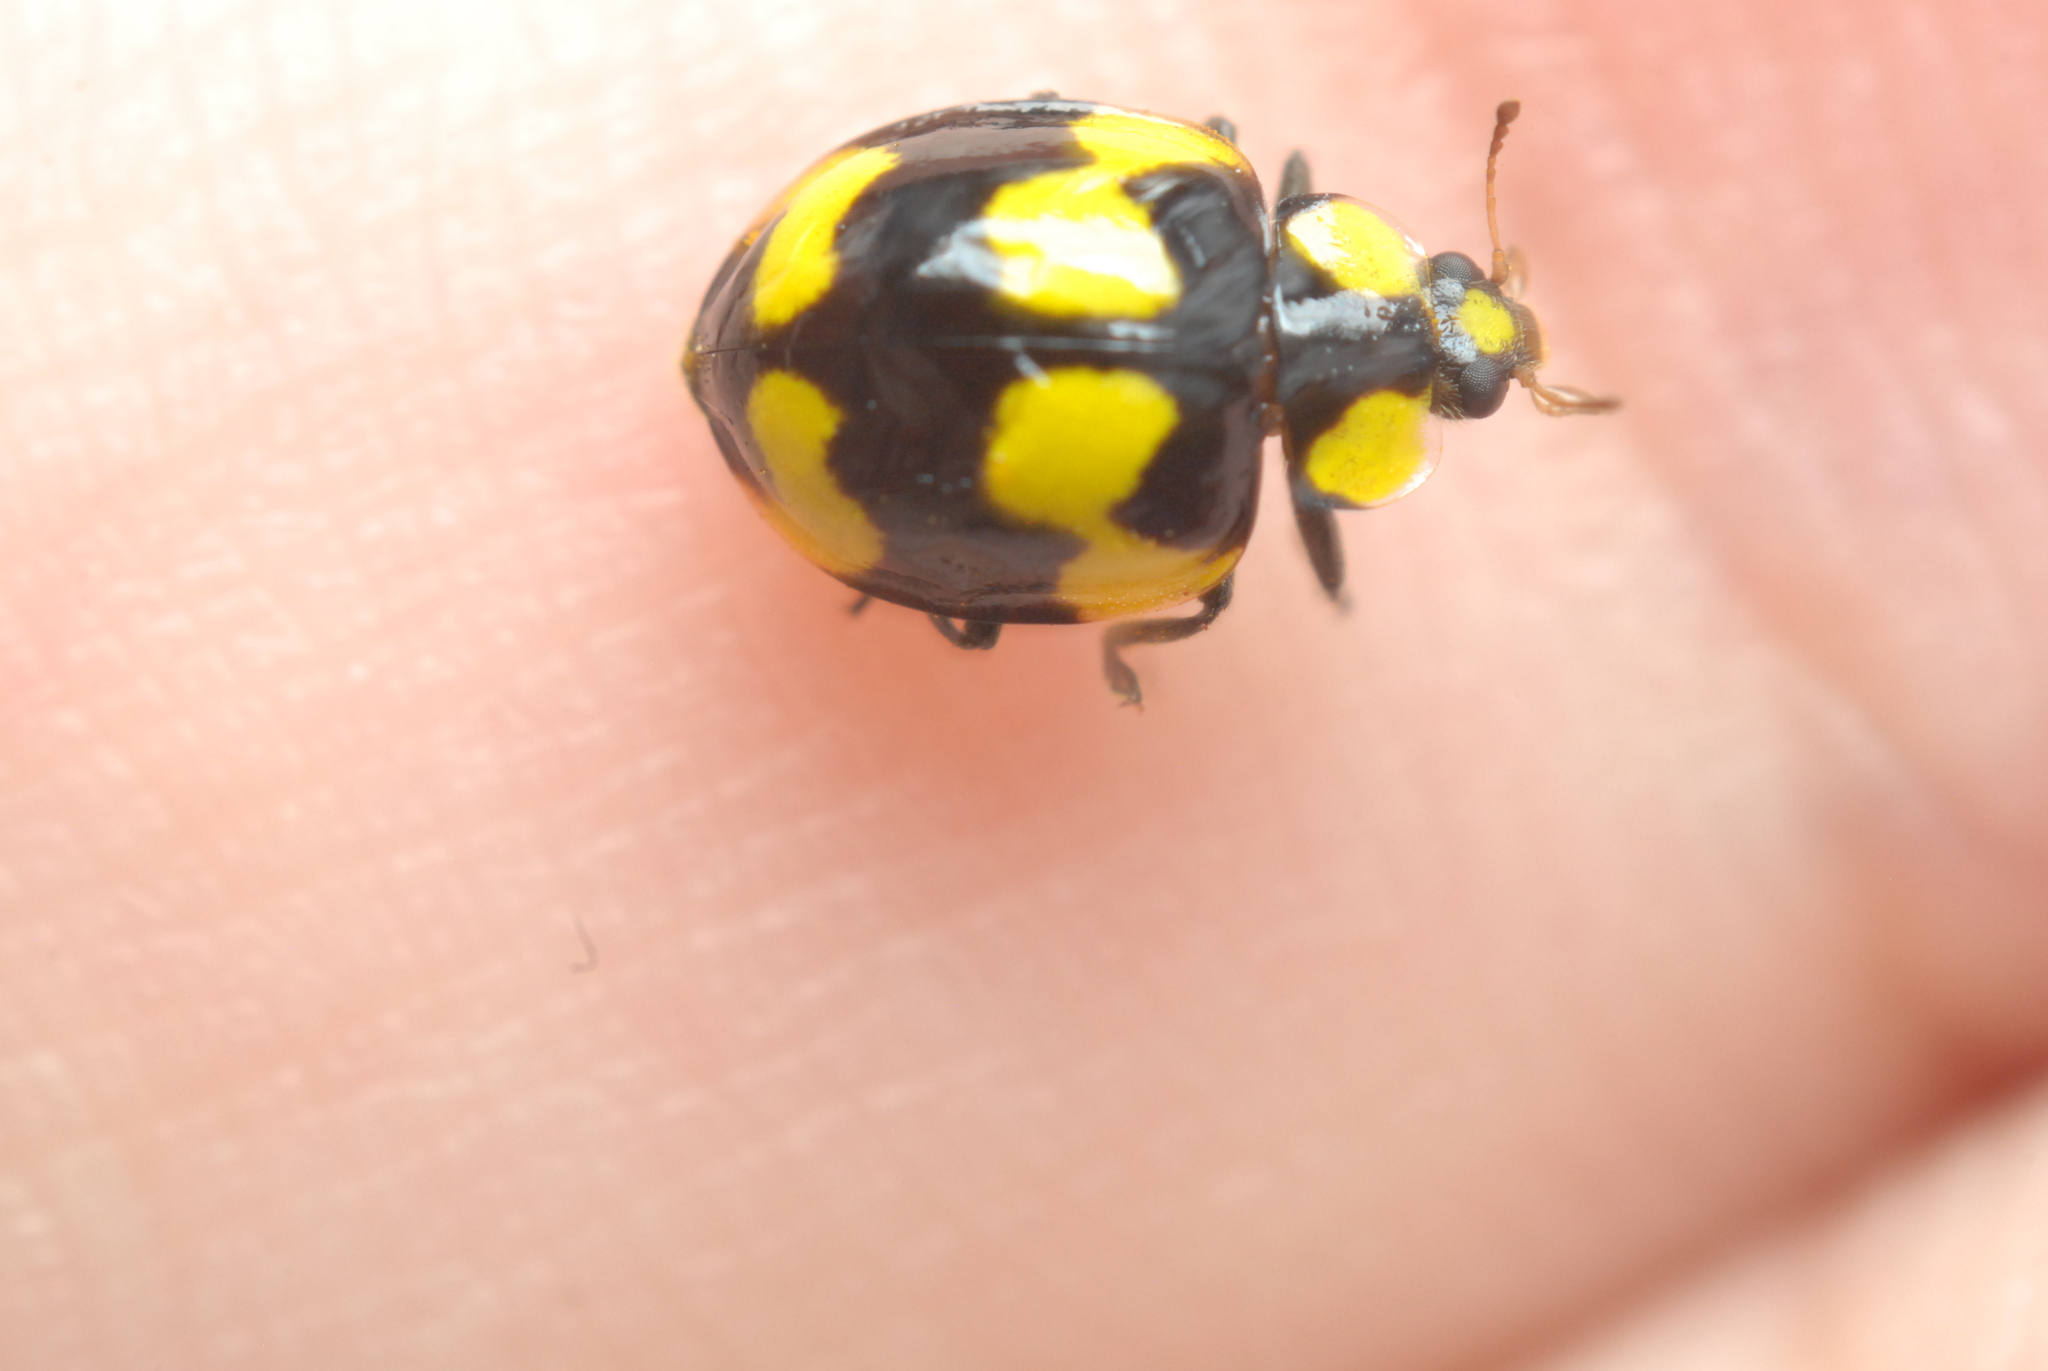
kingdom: Animalia
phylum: Arthropoda
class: Insecta
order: Coleoptera
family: Coccinellidae
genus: Illeis
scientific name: Illeis galbula
